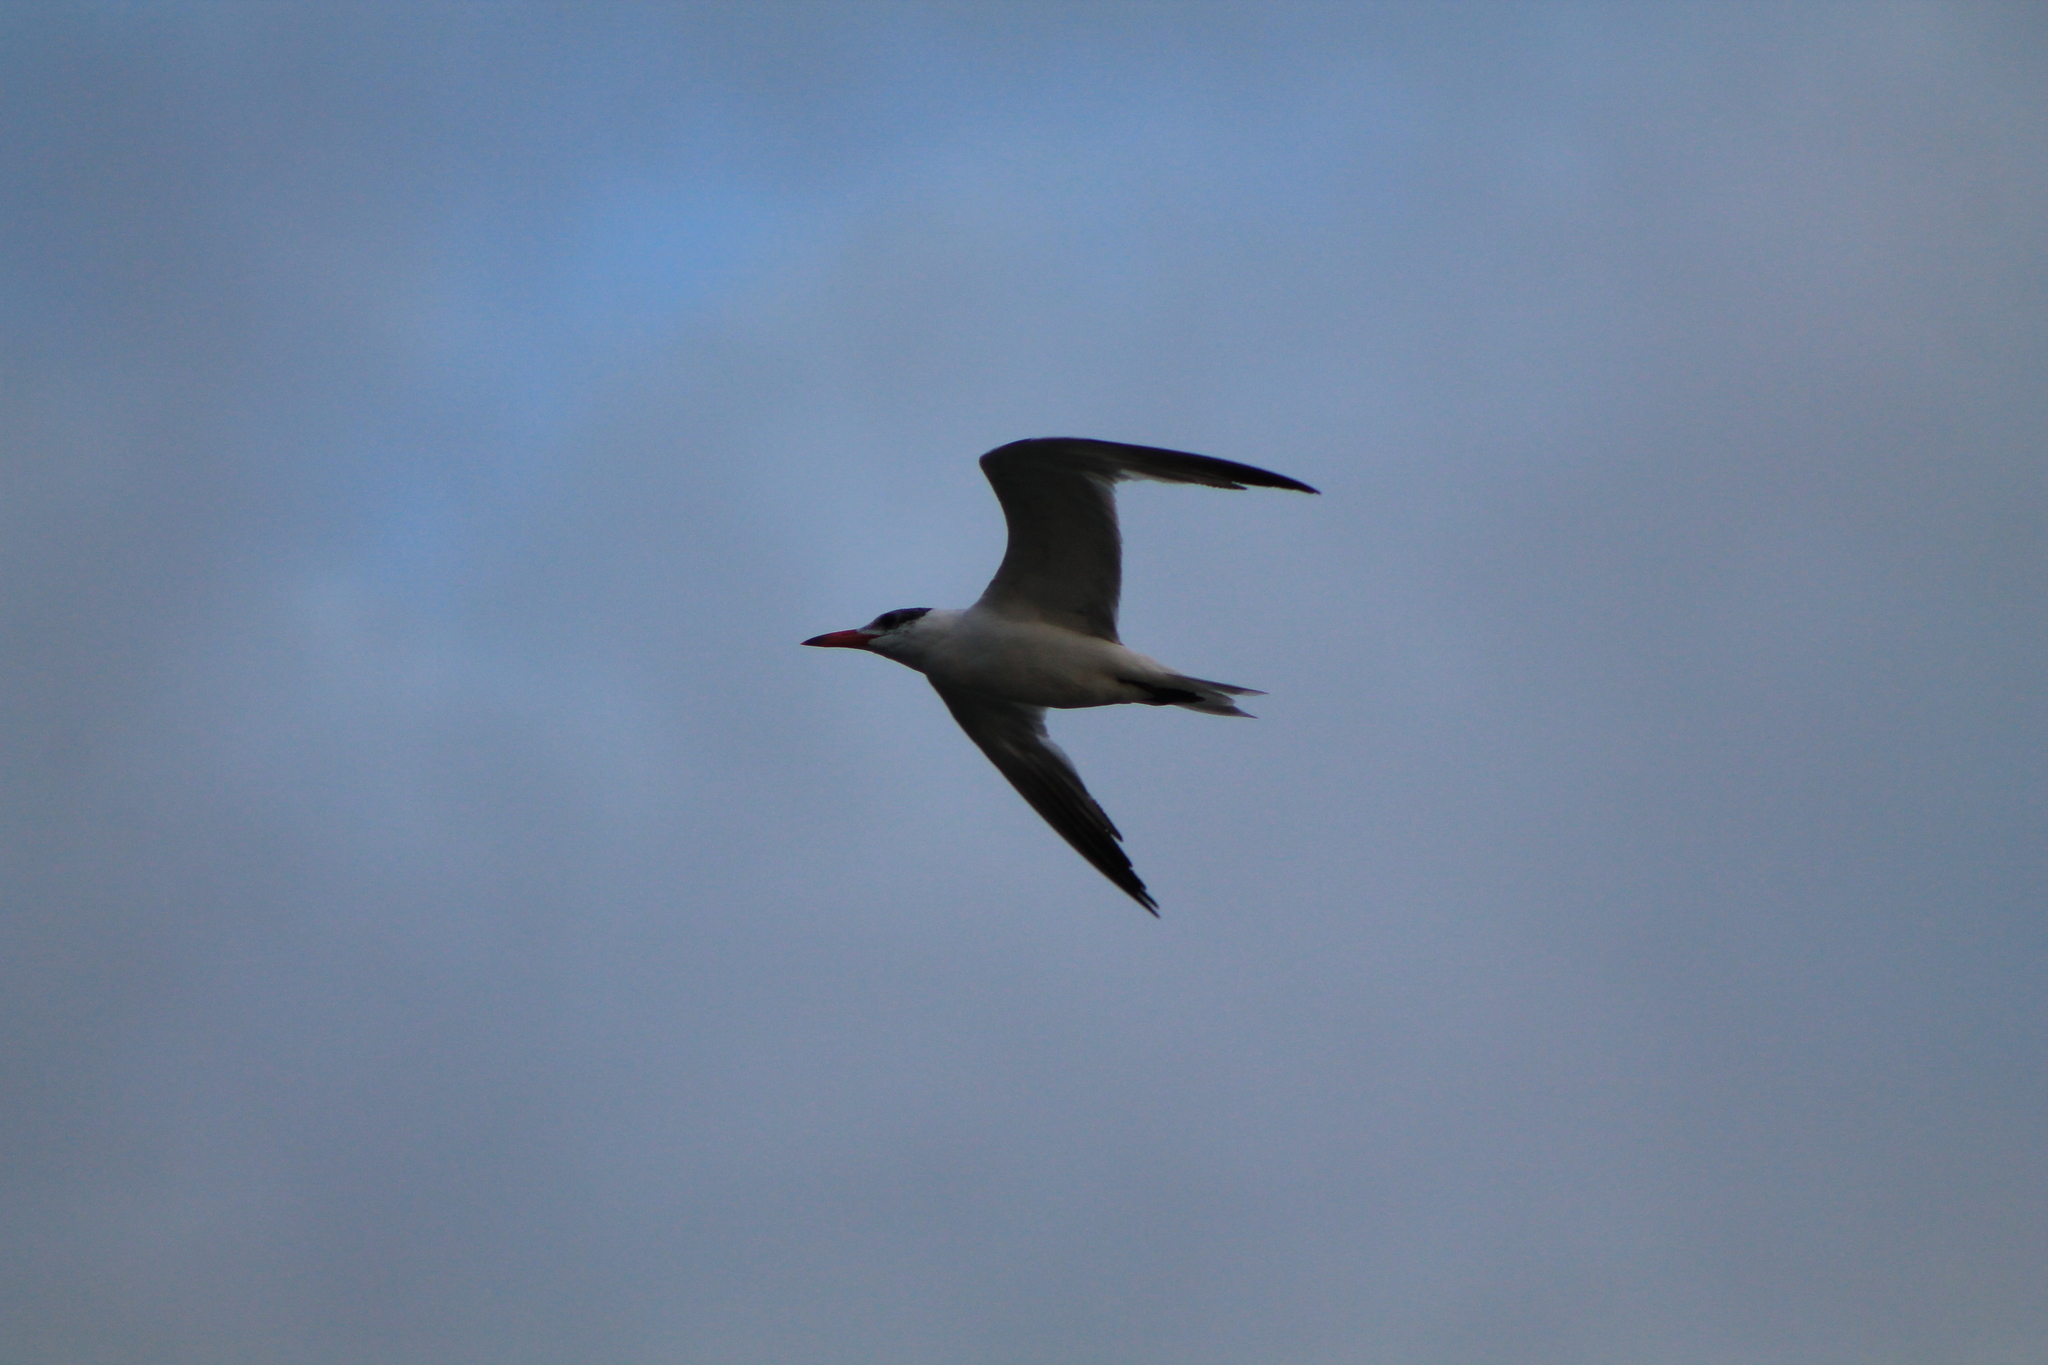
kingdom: Animalia
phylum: Chordata
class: Aves
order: Charadriiformes
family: Laridae
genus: Hydroprogne
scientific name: Hydroprogne caspia
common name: Caspian tern
